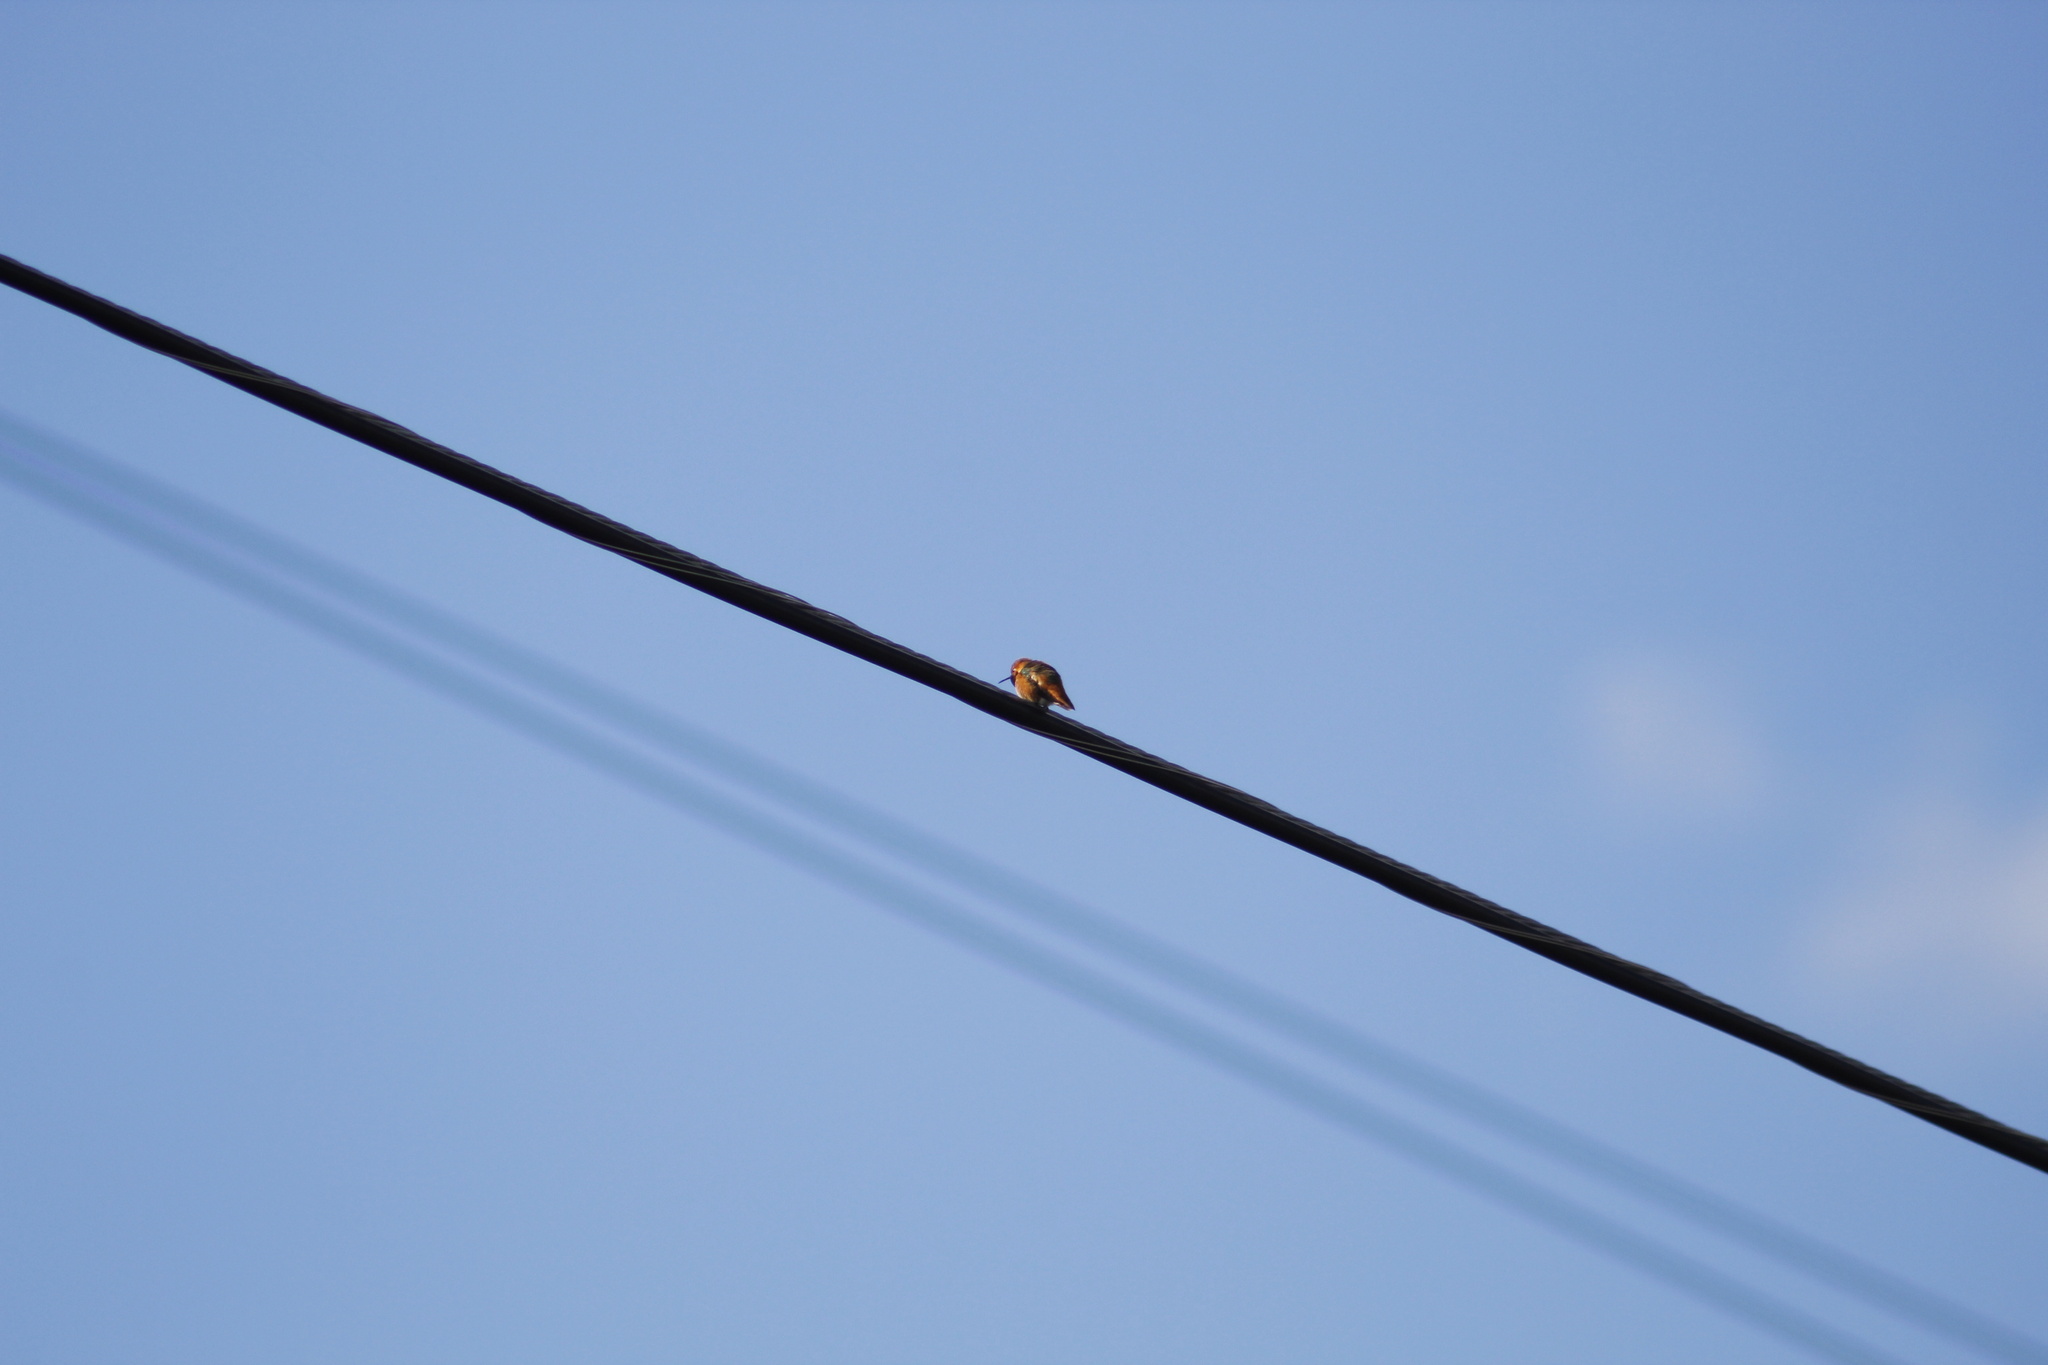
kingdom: Animalia
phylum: Chordata
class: Aves
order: Apodiformes
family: Trochilidae
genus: Selasphorus
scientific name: Selasphorus sasin
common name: Allen's hummingbird
